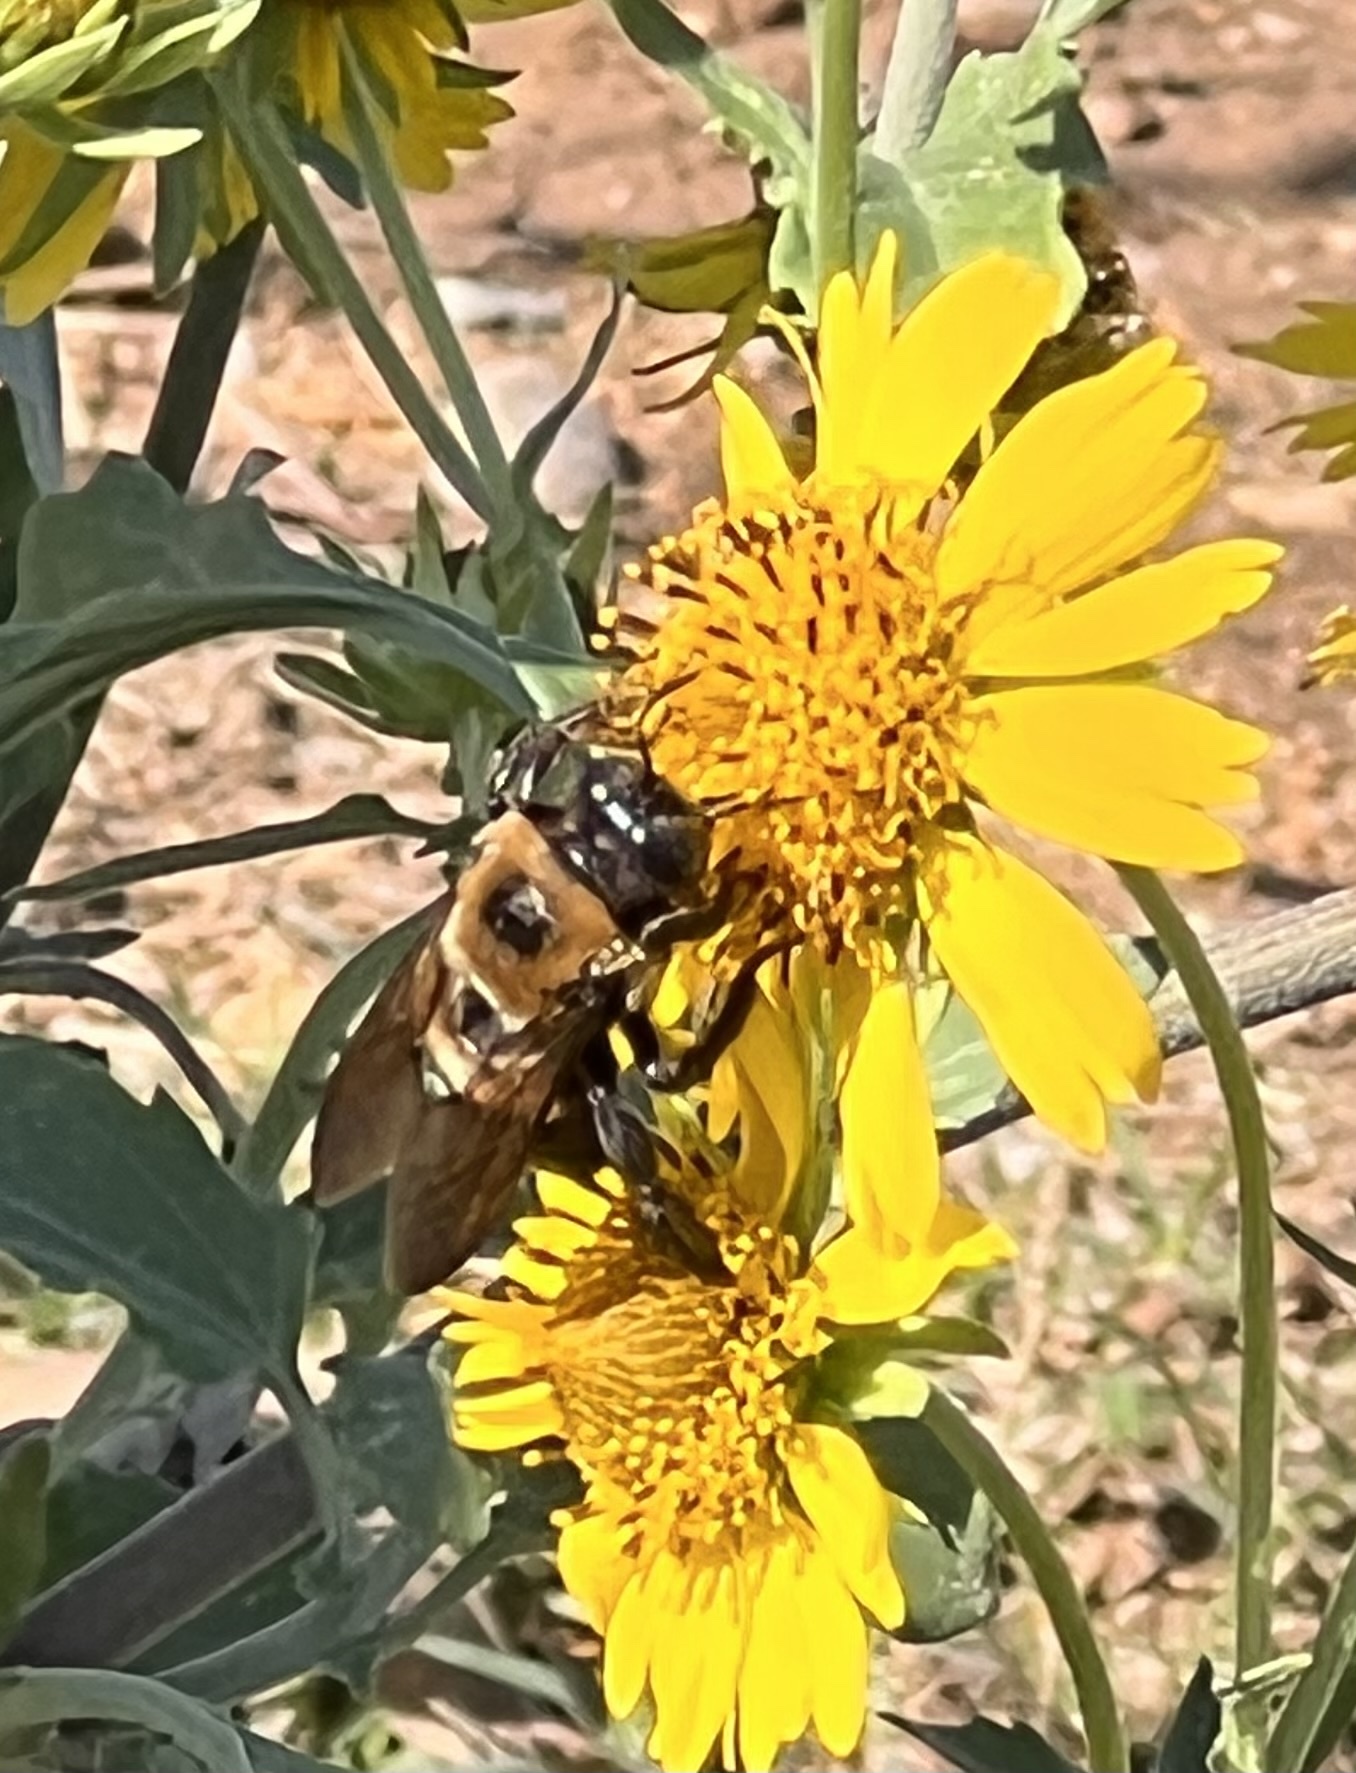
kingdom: Animalia
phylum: Arthropoda
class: Insecta
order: Hymenoptera
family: Apidae
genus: Xylocopa
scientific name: Xylocopa virginica
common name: Carpenter bee
